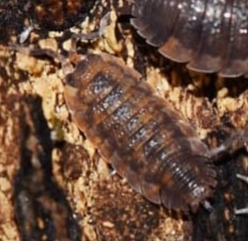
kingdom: Animalia
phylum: Arthropoda
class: Malacostraca
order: Isopoda
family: Porcellionidae
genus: Porcellio
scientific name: Porcellio scaber
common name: Common rough woodlouse
